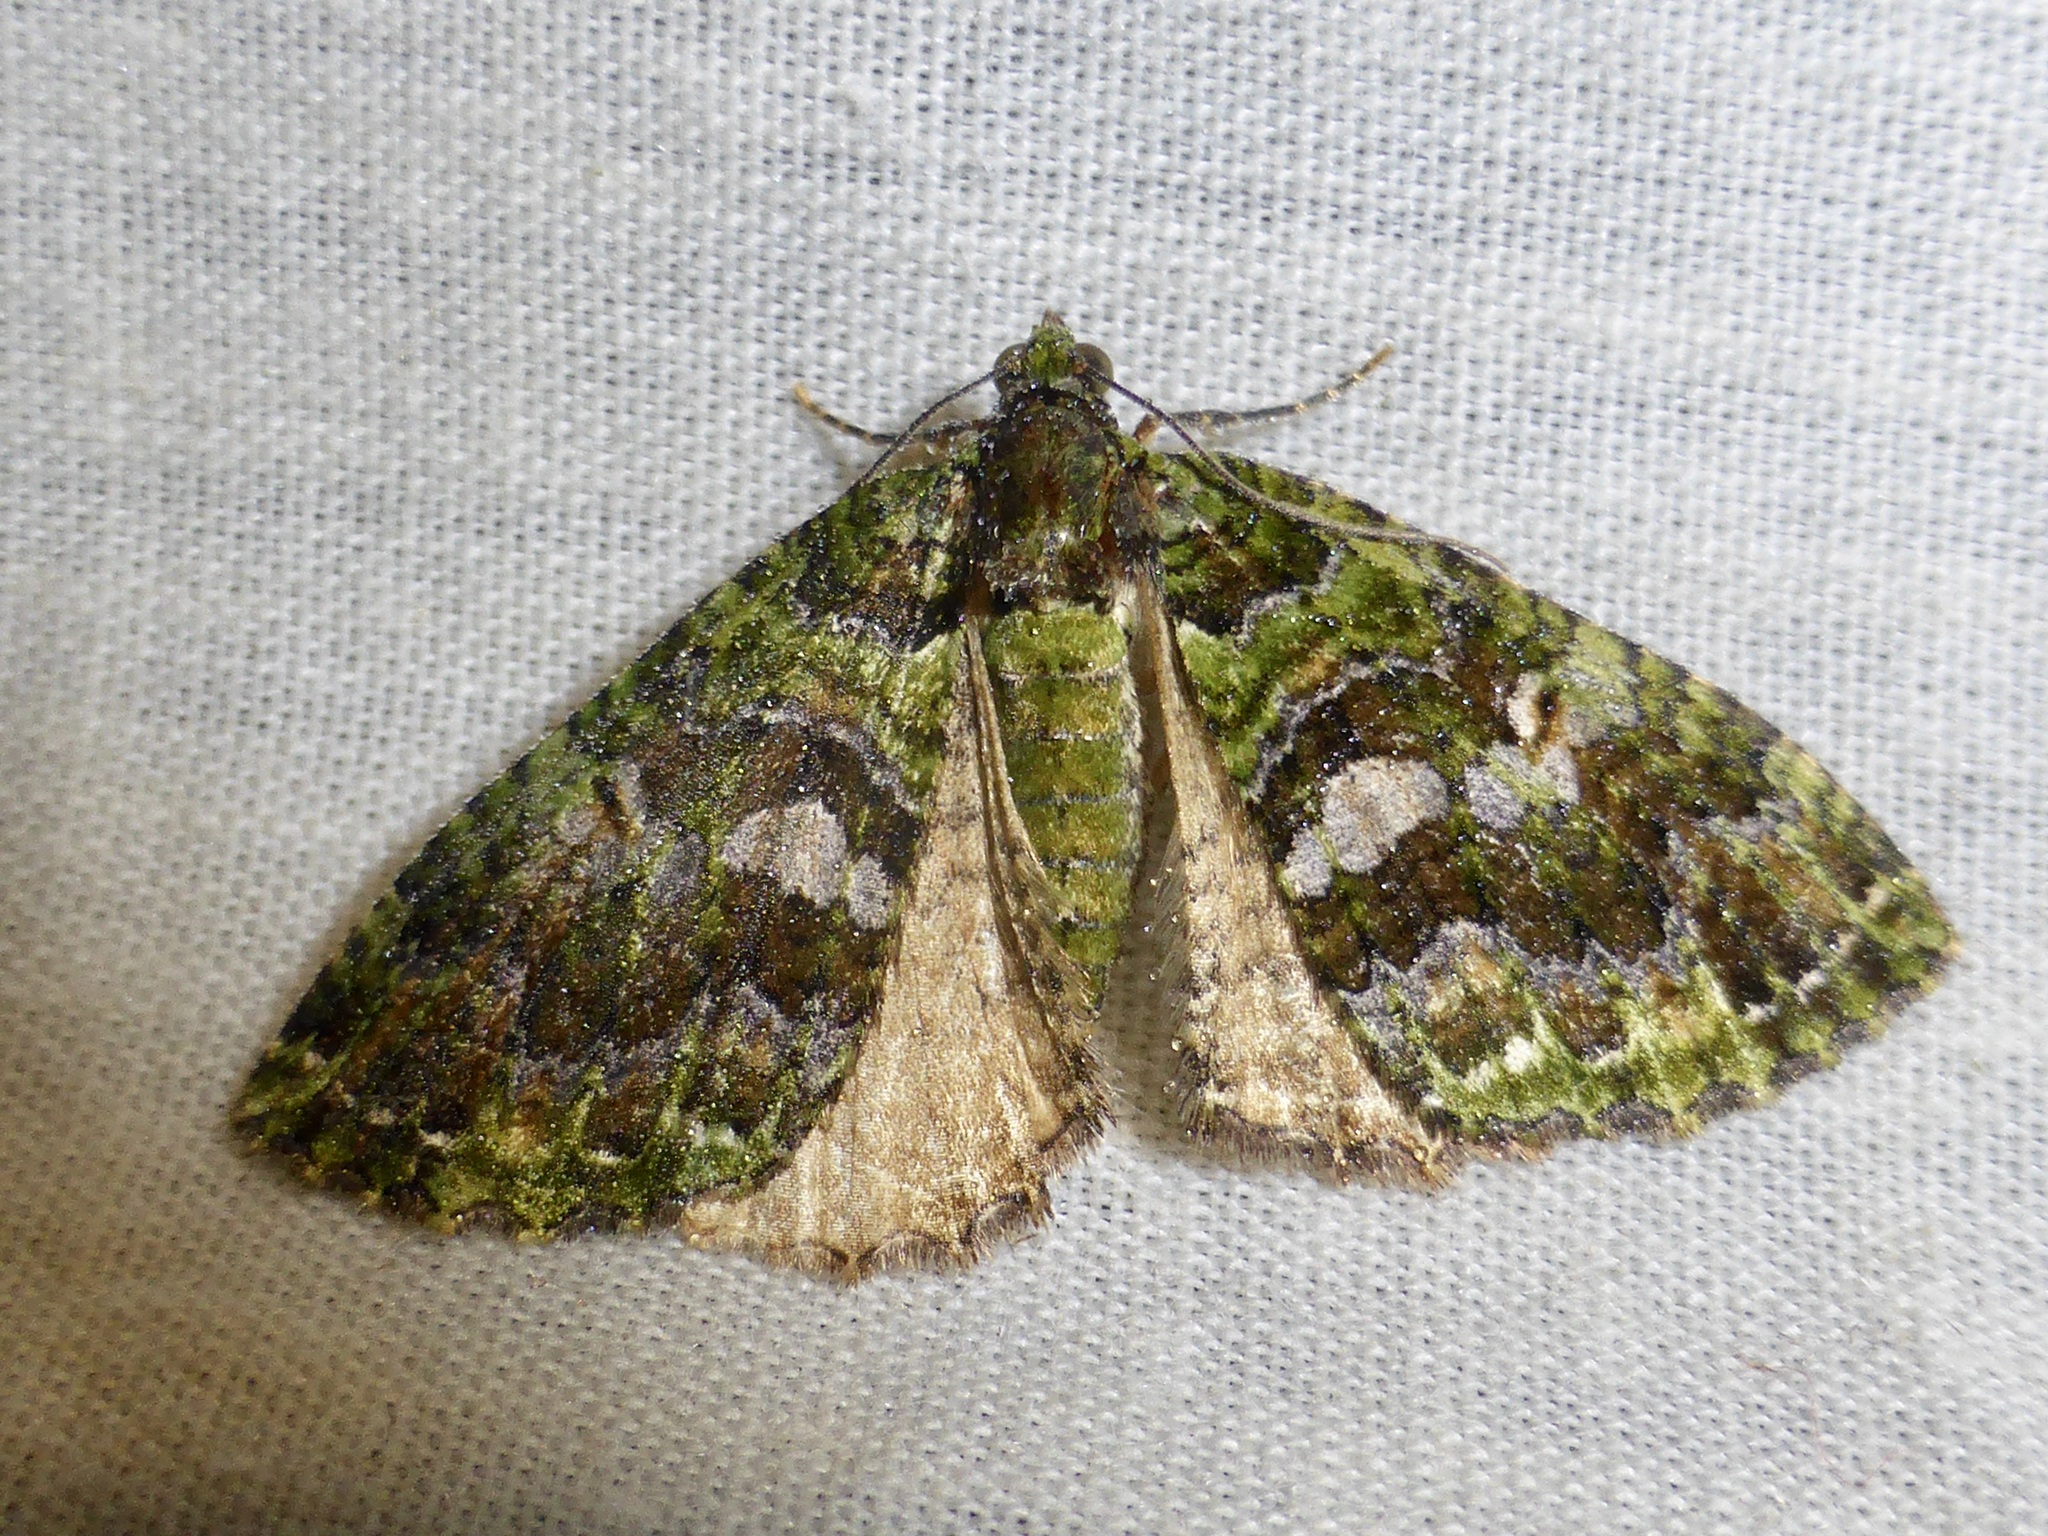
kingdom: Animalia
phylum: Arthropoda
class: Insecta
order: Lepidoptera
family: Geometridae
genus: Austrocidaria
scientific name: Austrocidaria similata
